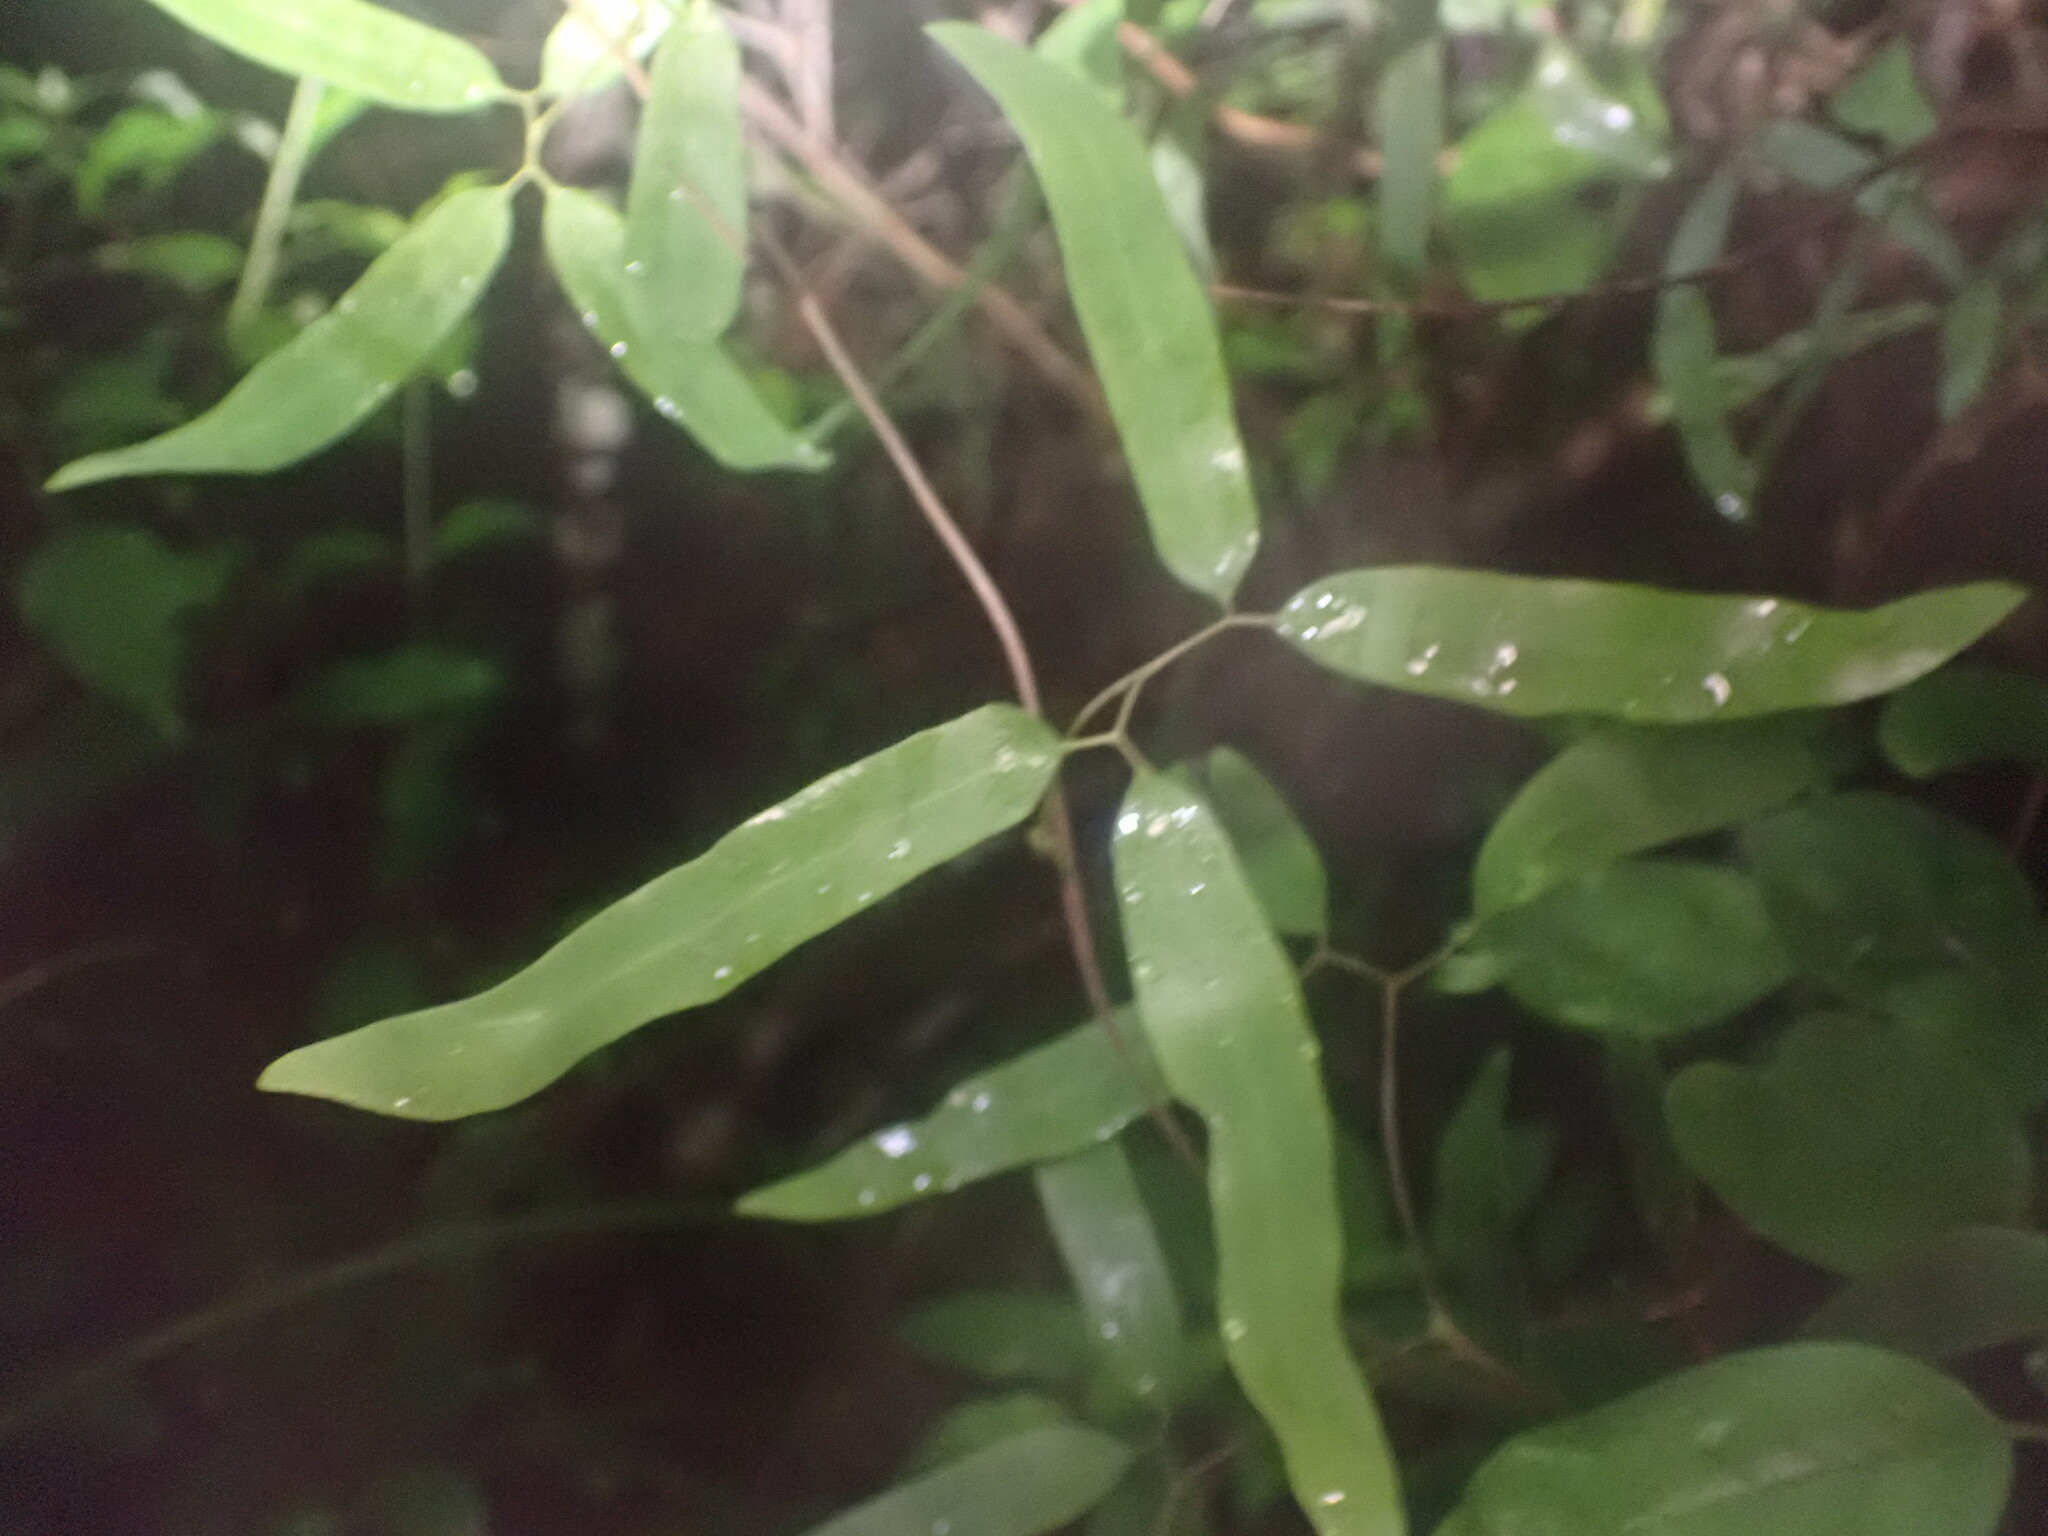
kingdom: Plantae
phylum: Tracheophyta
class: Polypodiopsida
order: Schizaeales
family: Lygodiaceae
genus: Lygodium
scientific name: Lygodium articulatum
